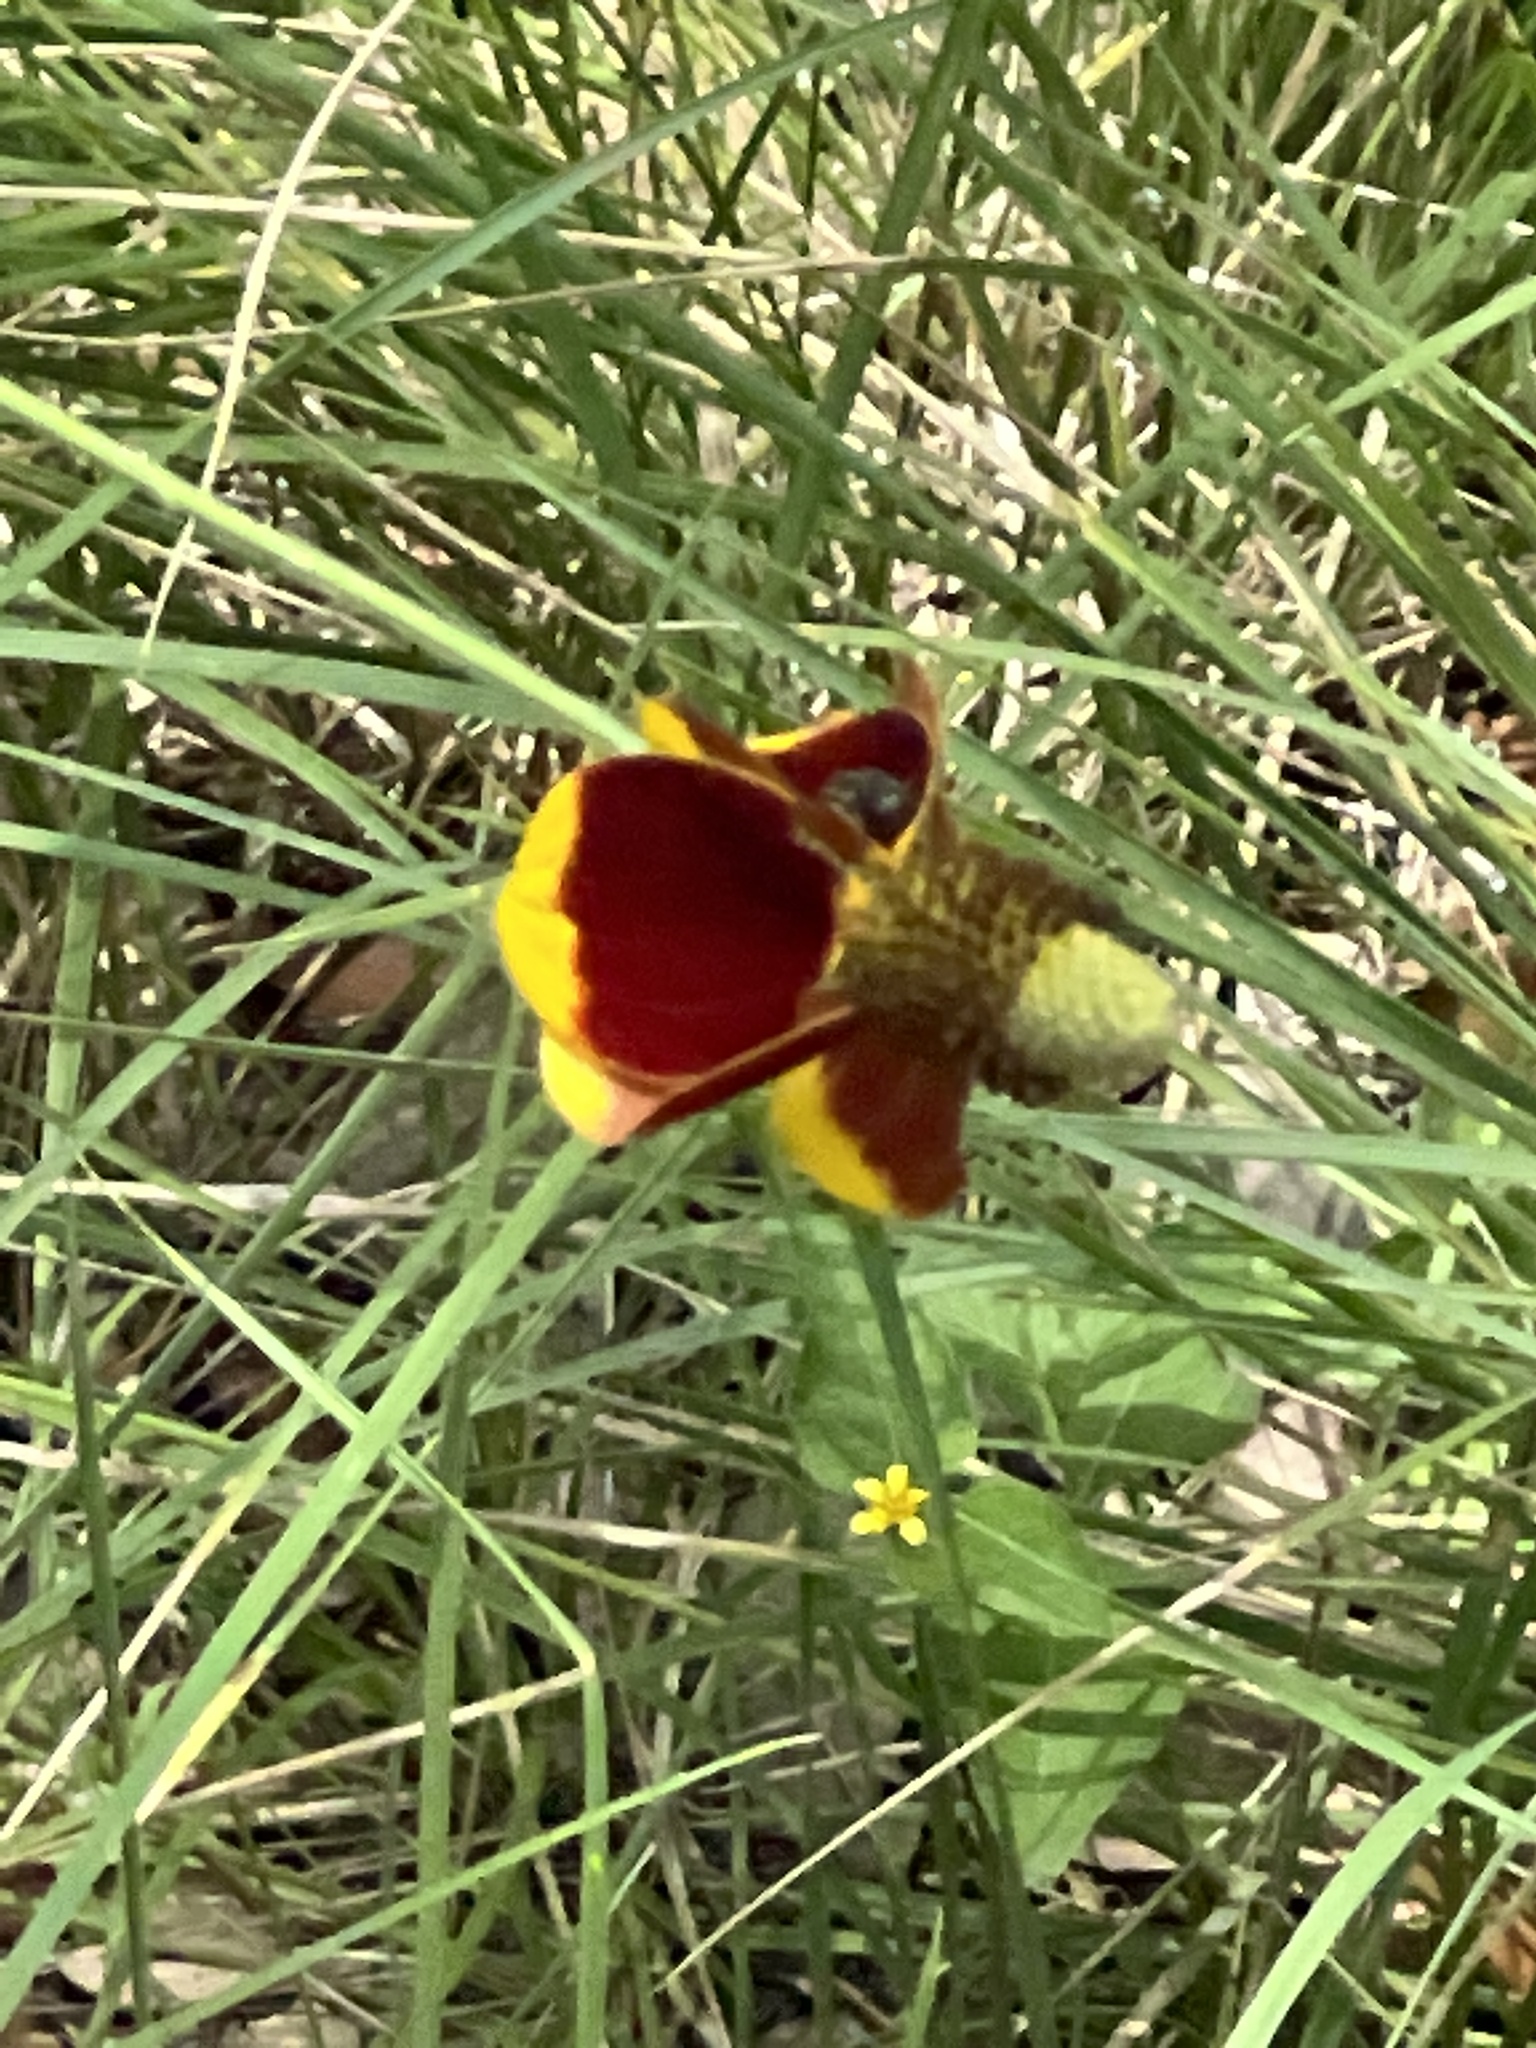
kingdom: Plantae
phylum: Tracheophyta
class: Magnoliopsida
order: Asterales
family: Asteraceae
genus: Ratibida
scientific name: Ratibida columnifera
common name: Prairie coneflower
